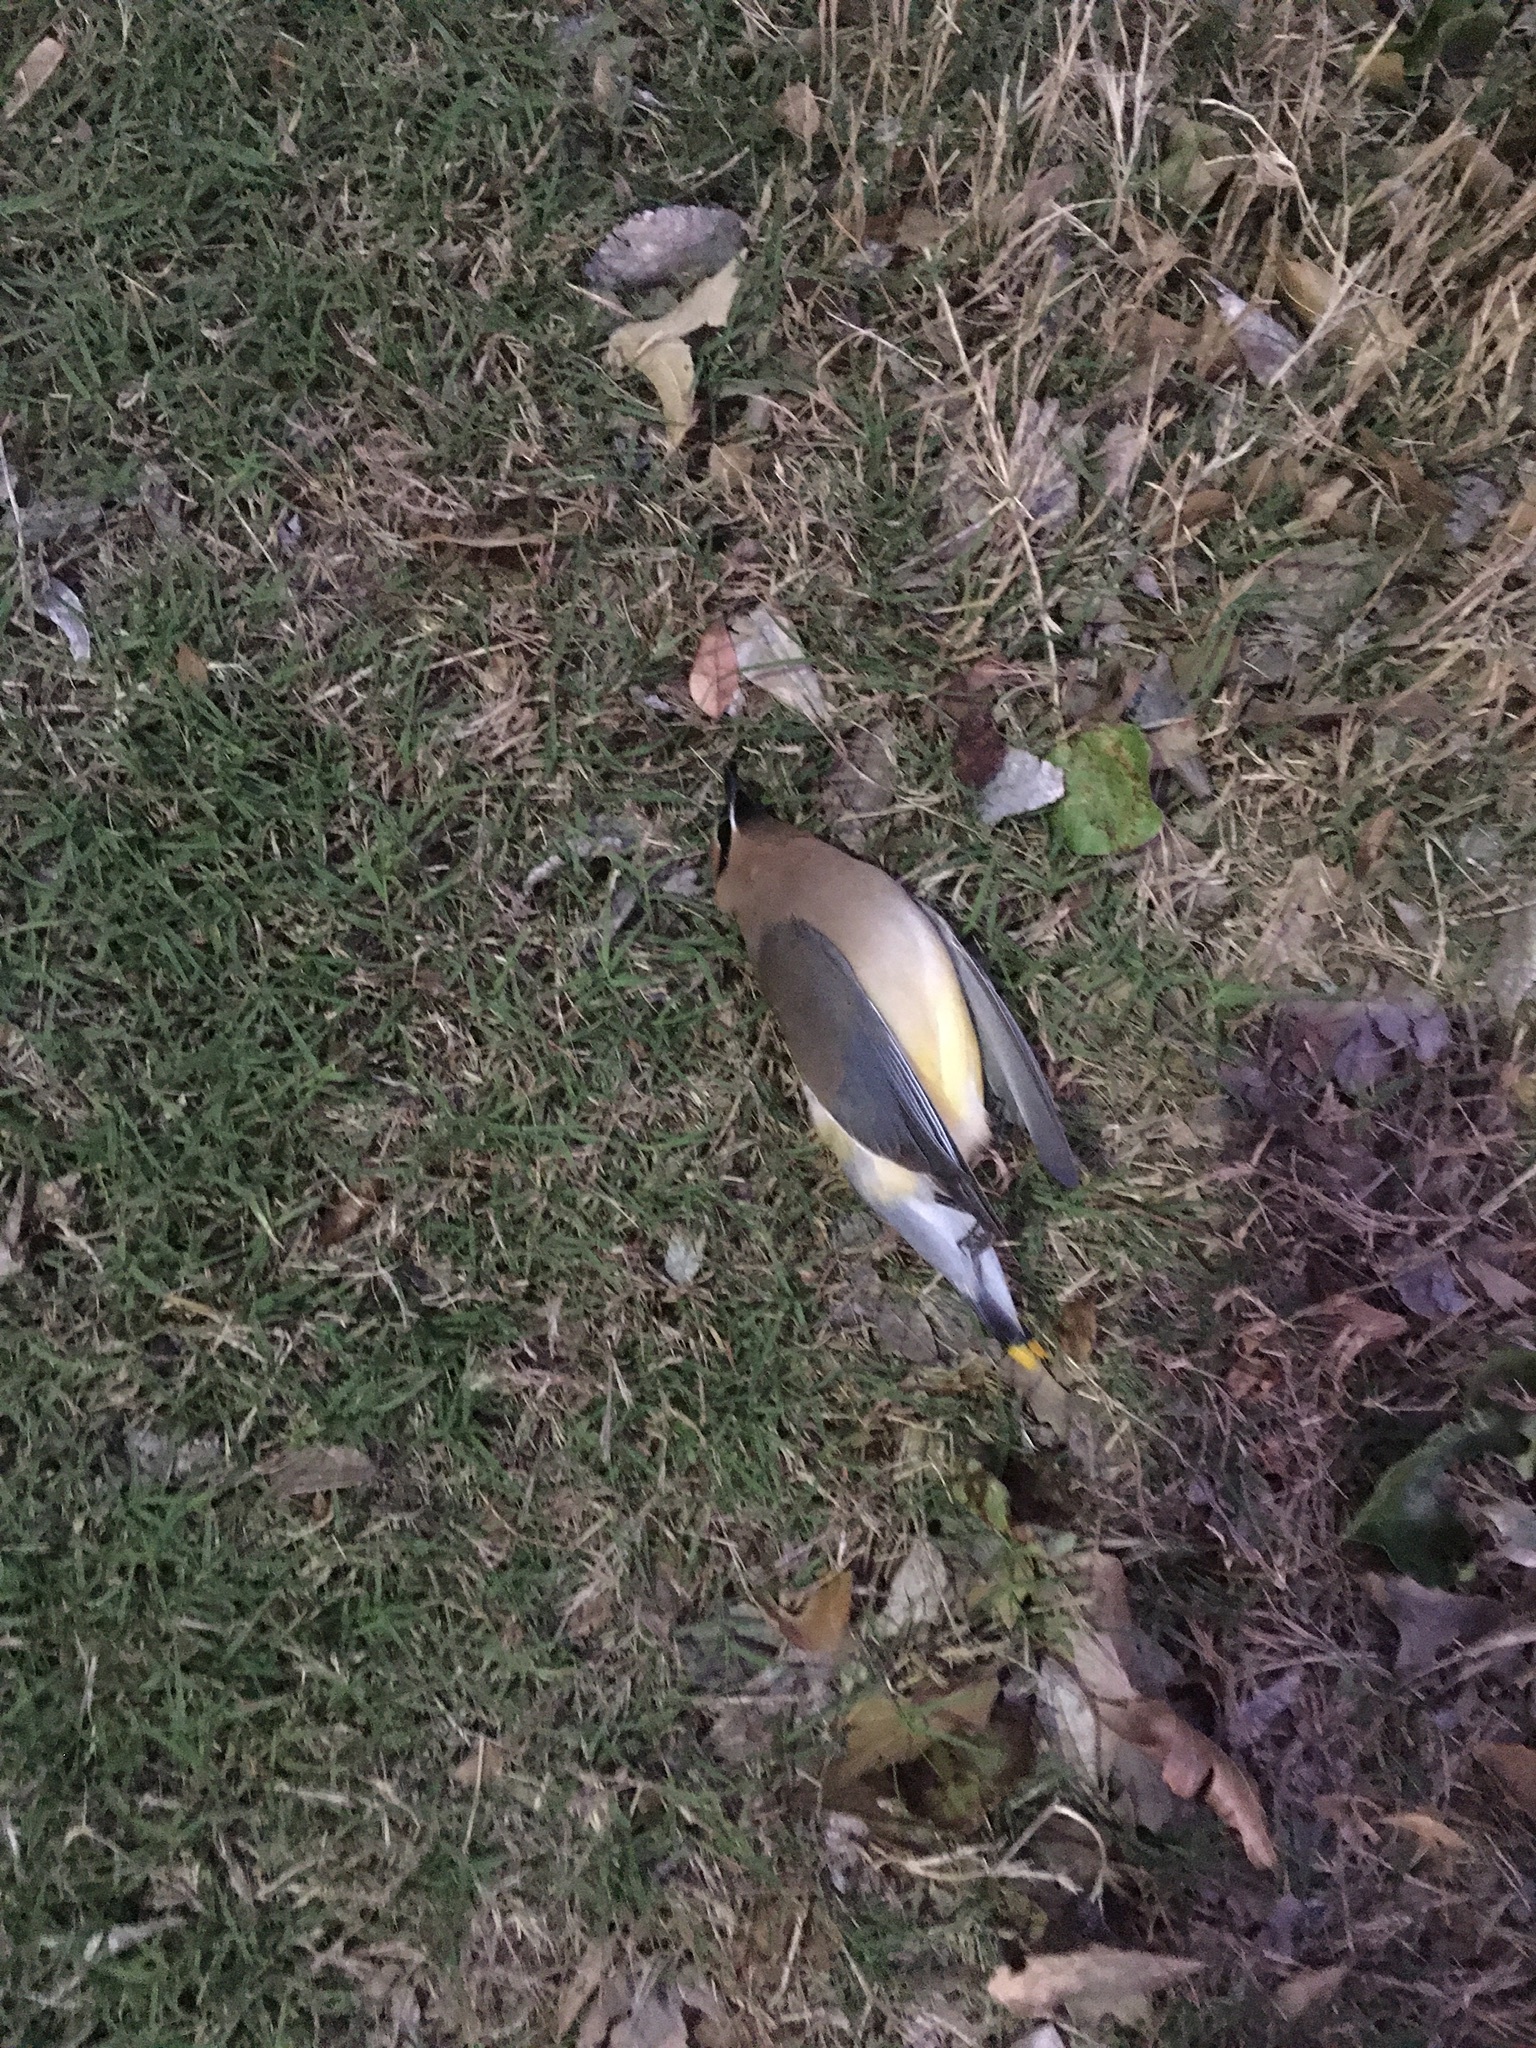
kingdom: Animalia
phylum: Chordata
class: Aves
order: Passeriformes
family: Bombycillidae
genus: Bombycilla
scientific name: Bombycilla cedrorum
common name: Cedar waxwing
